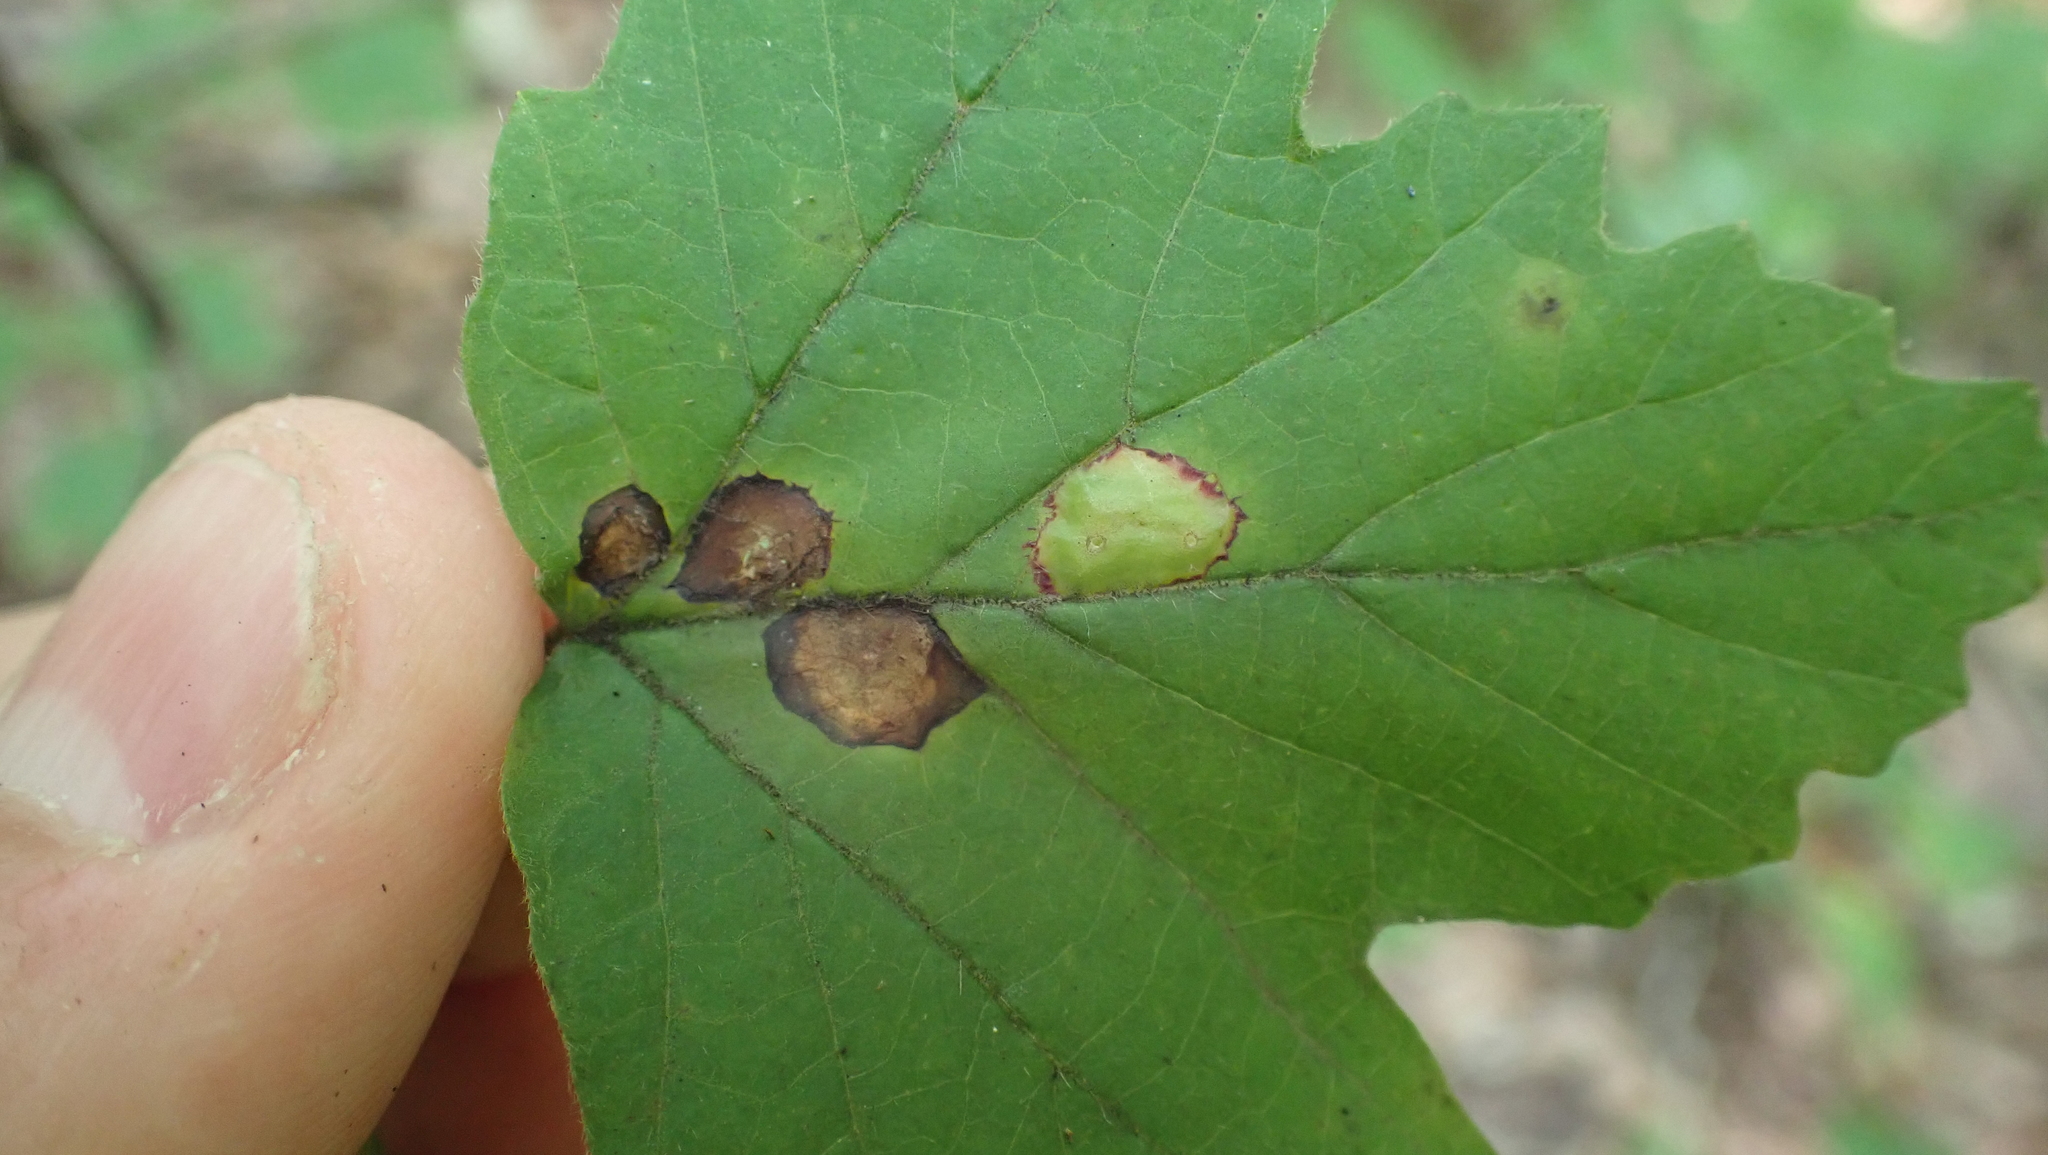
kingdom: Animalia
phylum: Arthropoda
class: Insecta
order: Diptera
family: Cecidomyiidae
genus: Sackenomyia
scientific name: Sackenomyia commota
